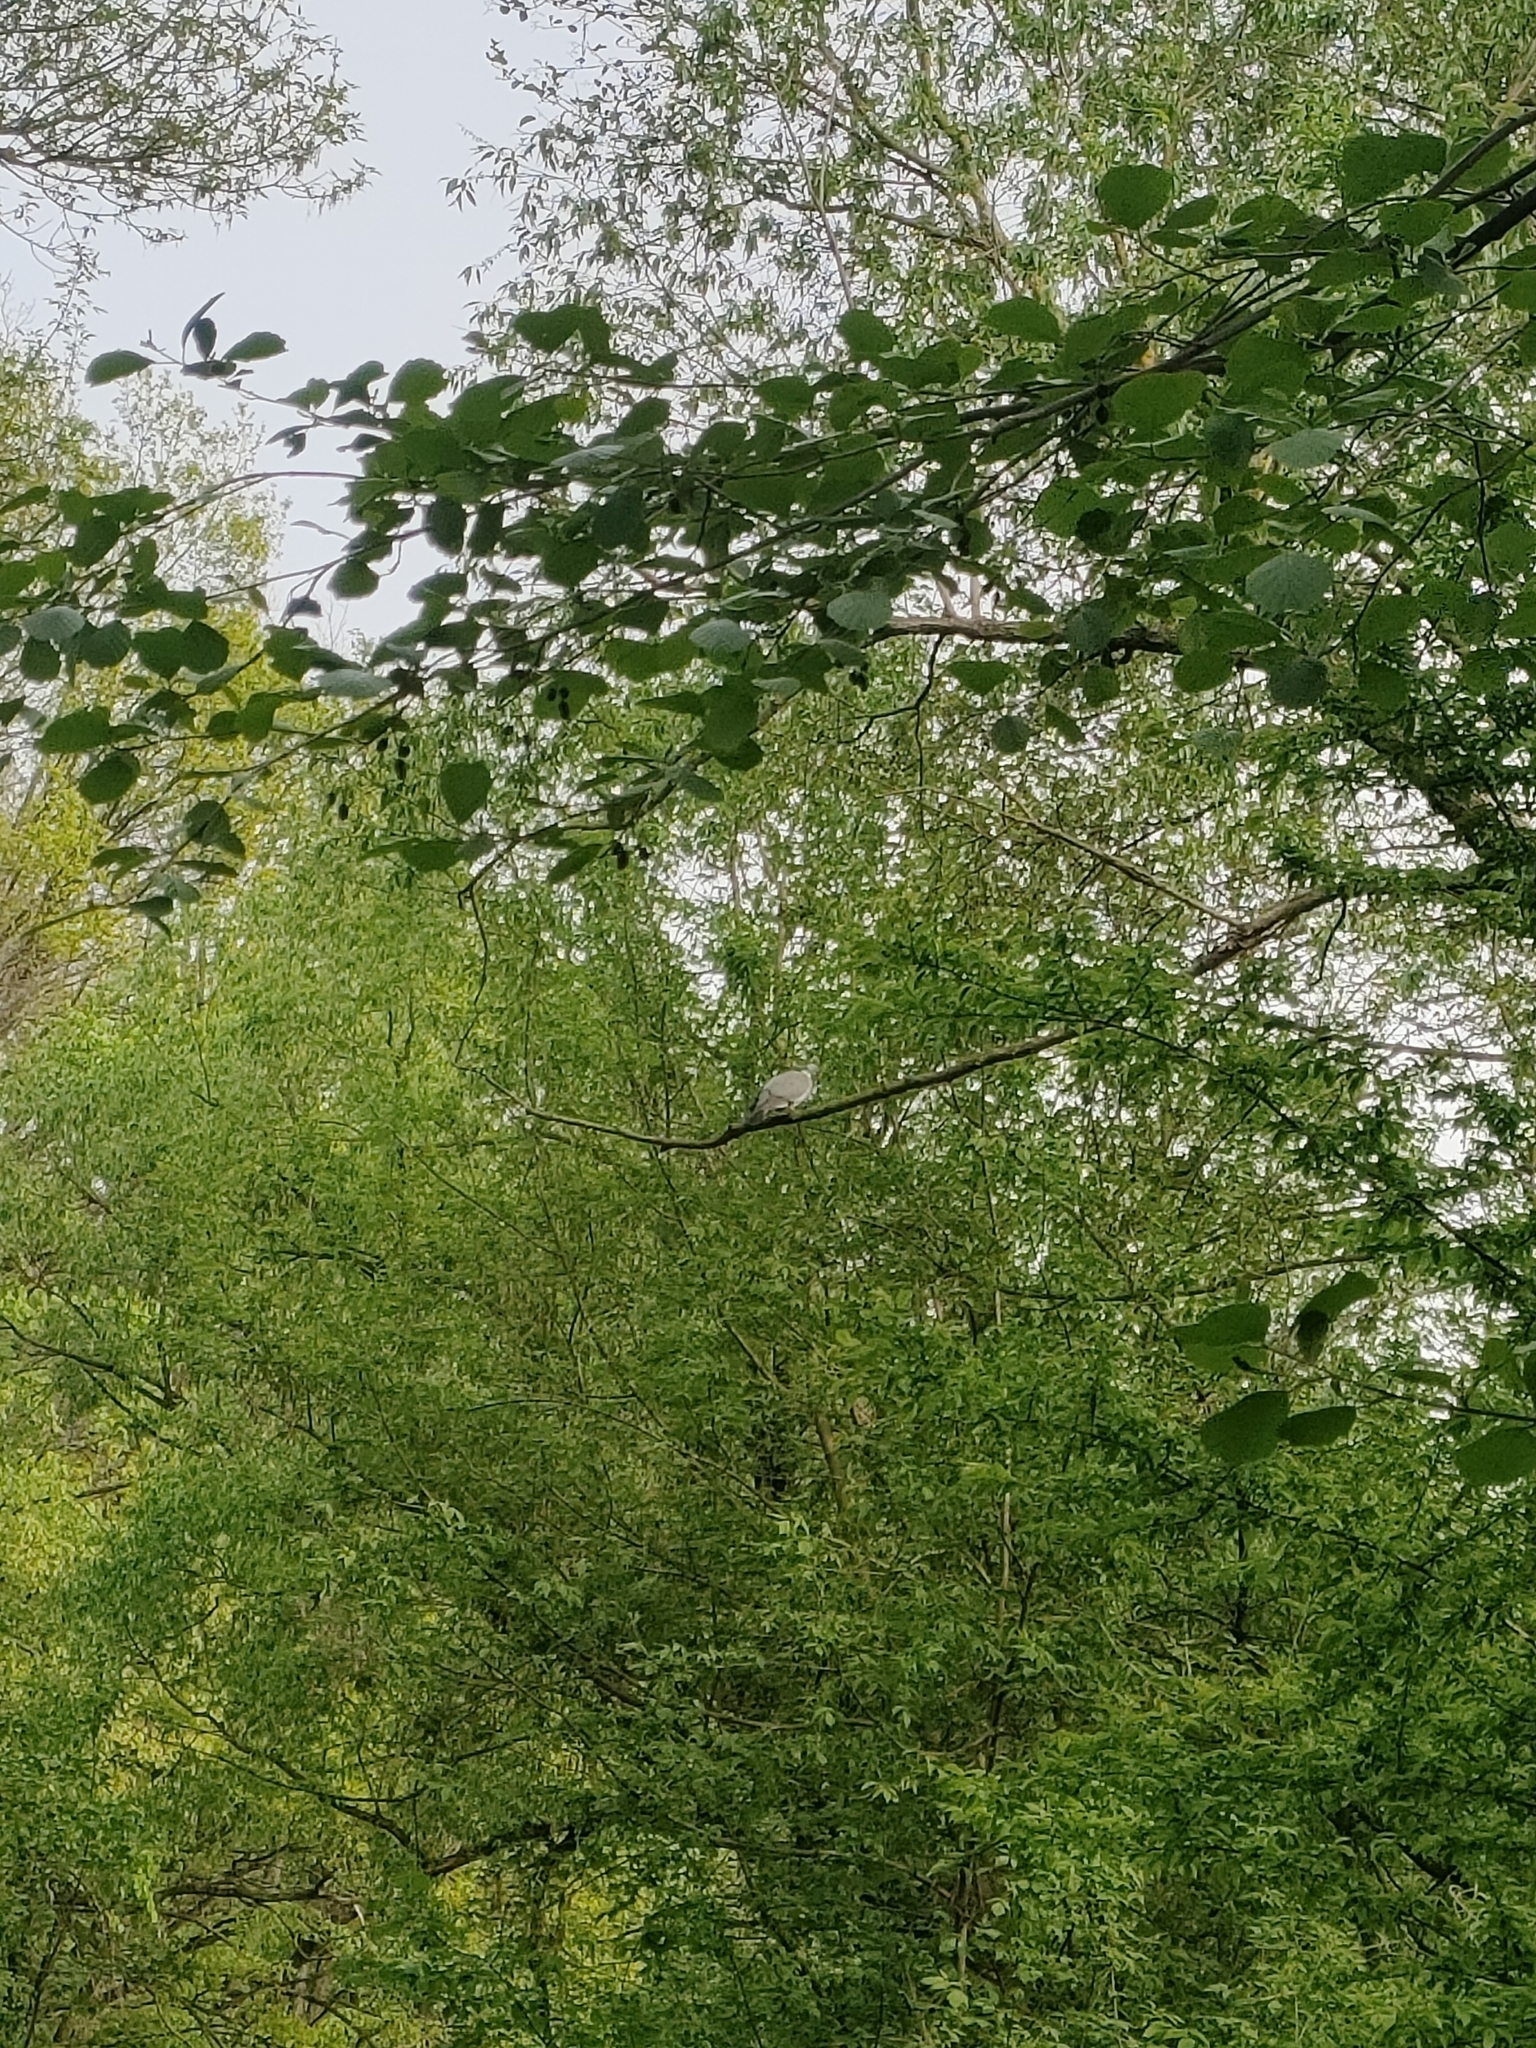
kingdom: Animalia
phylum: Chordata
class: Aves
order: Columbiformes
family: Columbidae
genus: Columba
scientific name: Columba palumbus
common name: Common wood pigeon
